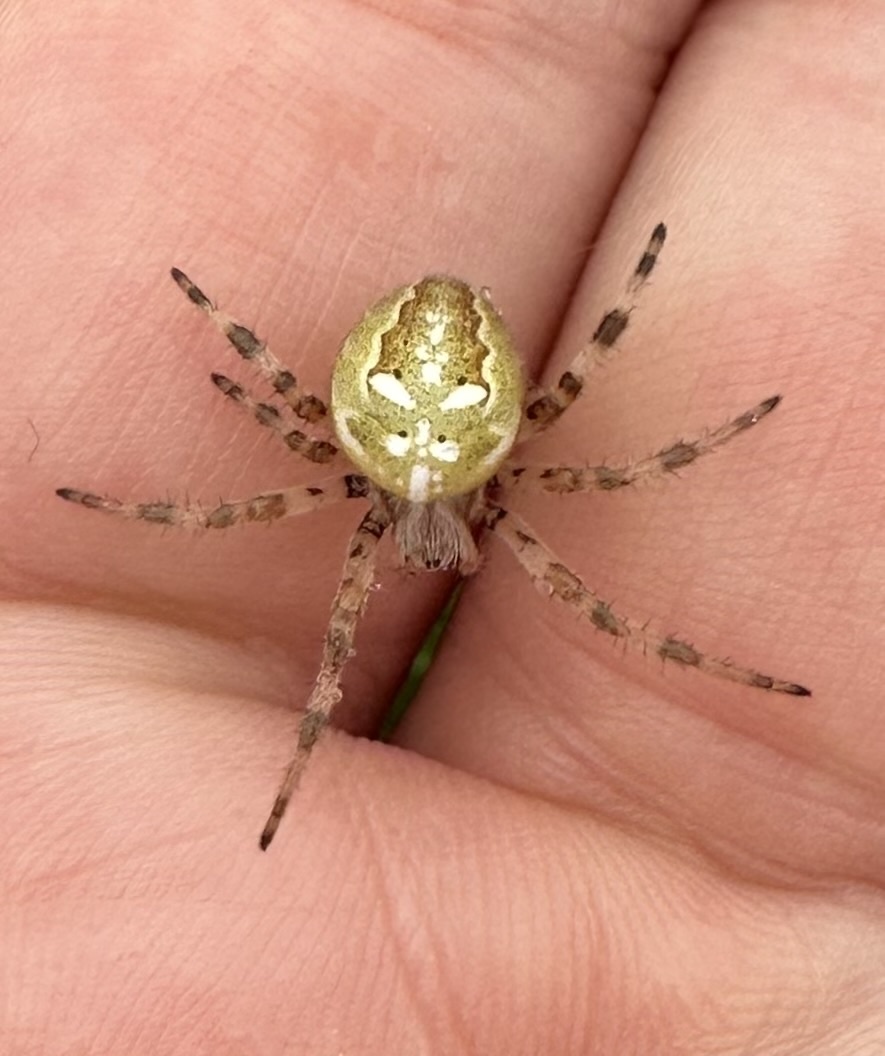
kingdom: Animalia
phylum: Arthropoda
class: Arachnida
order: Araneae
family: Araneidae
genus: Araneus
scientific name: Araneus quadratus
